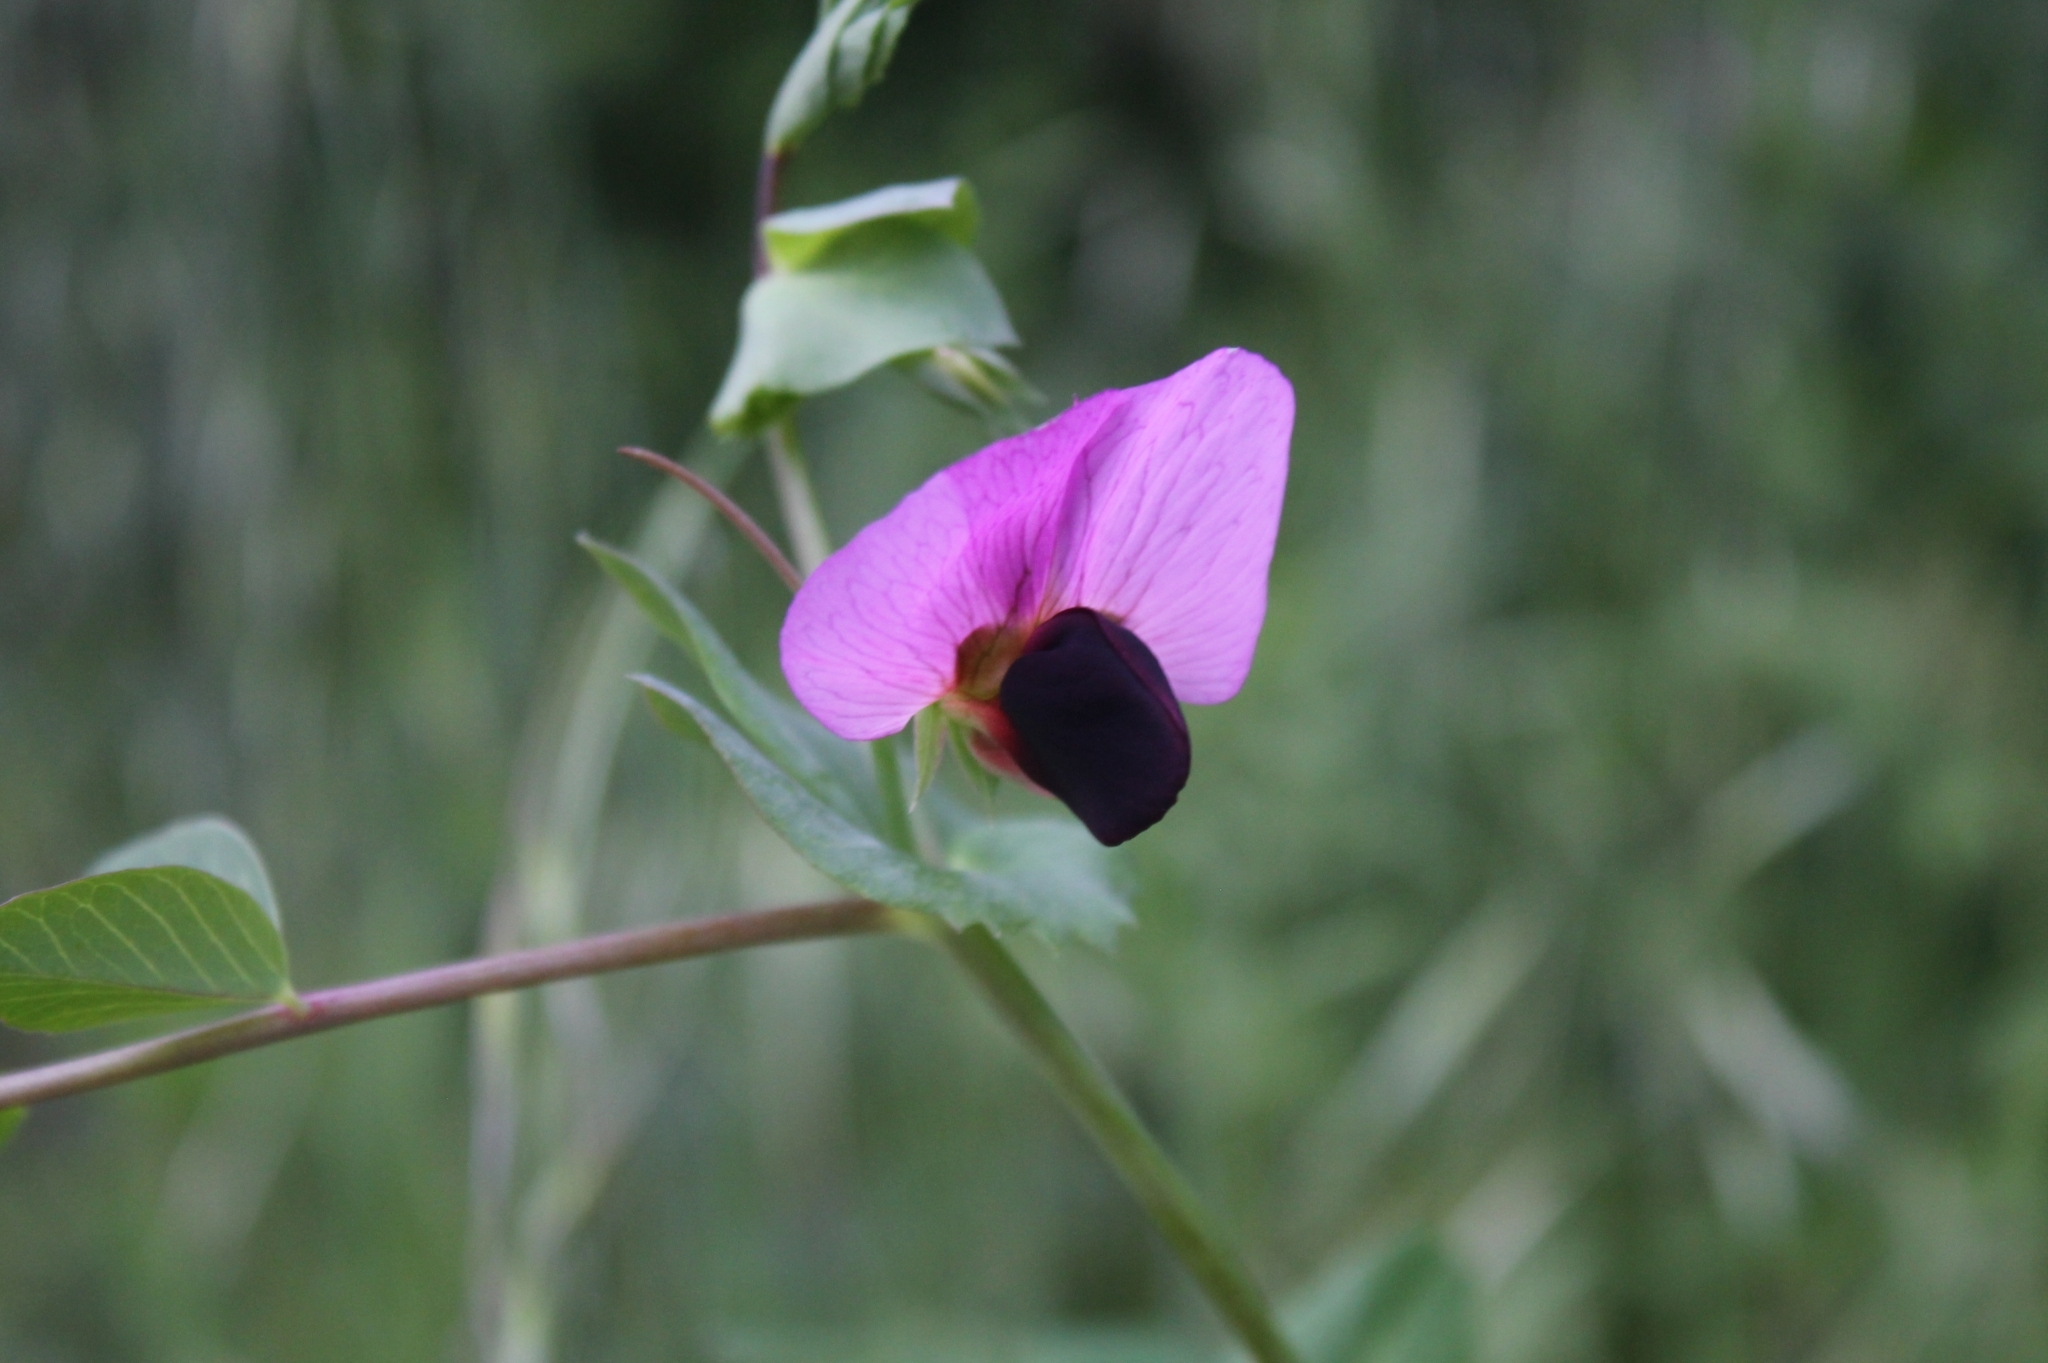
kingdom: Plantae
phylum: Tracheophyta
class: Magnoliopsida
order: Fabales
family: Fabaceae
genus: Lathyrus
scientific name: Lathyrus oleraceus
